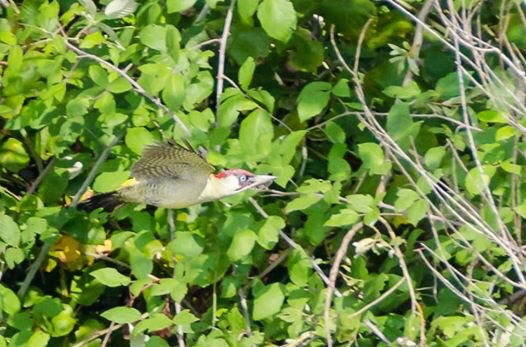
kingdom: Animalia
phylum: Chordata
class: Aves
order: Piciformes
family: Picidae
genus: Picus
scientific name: Picus viridis
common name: European green woodpecker
